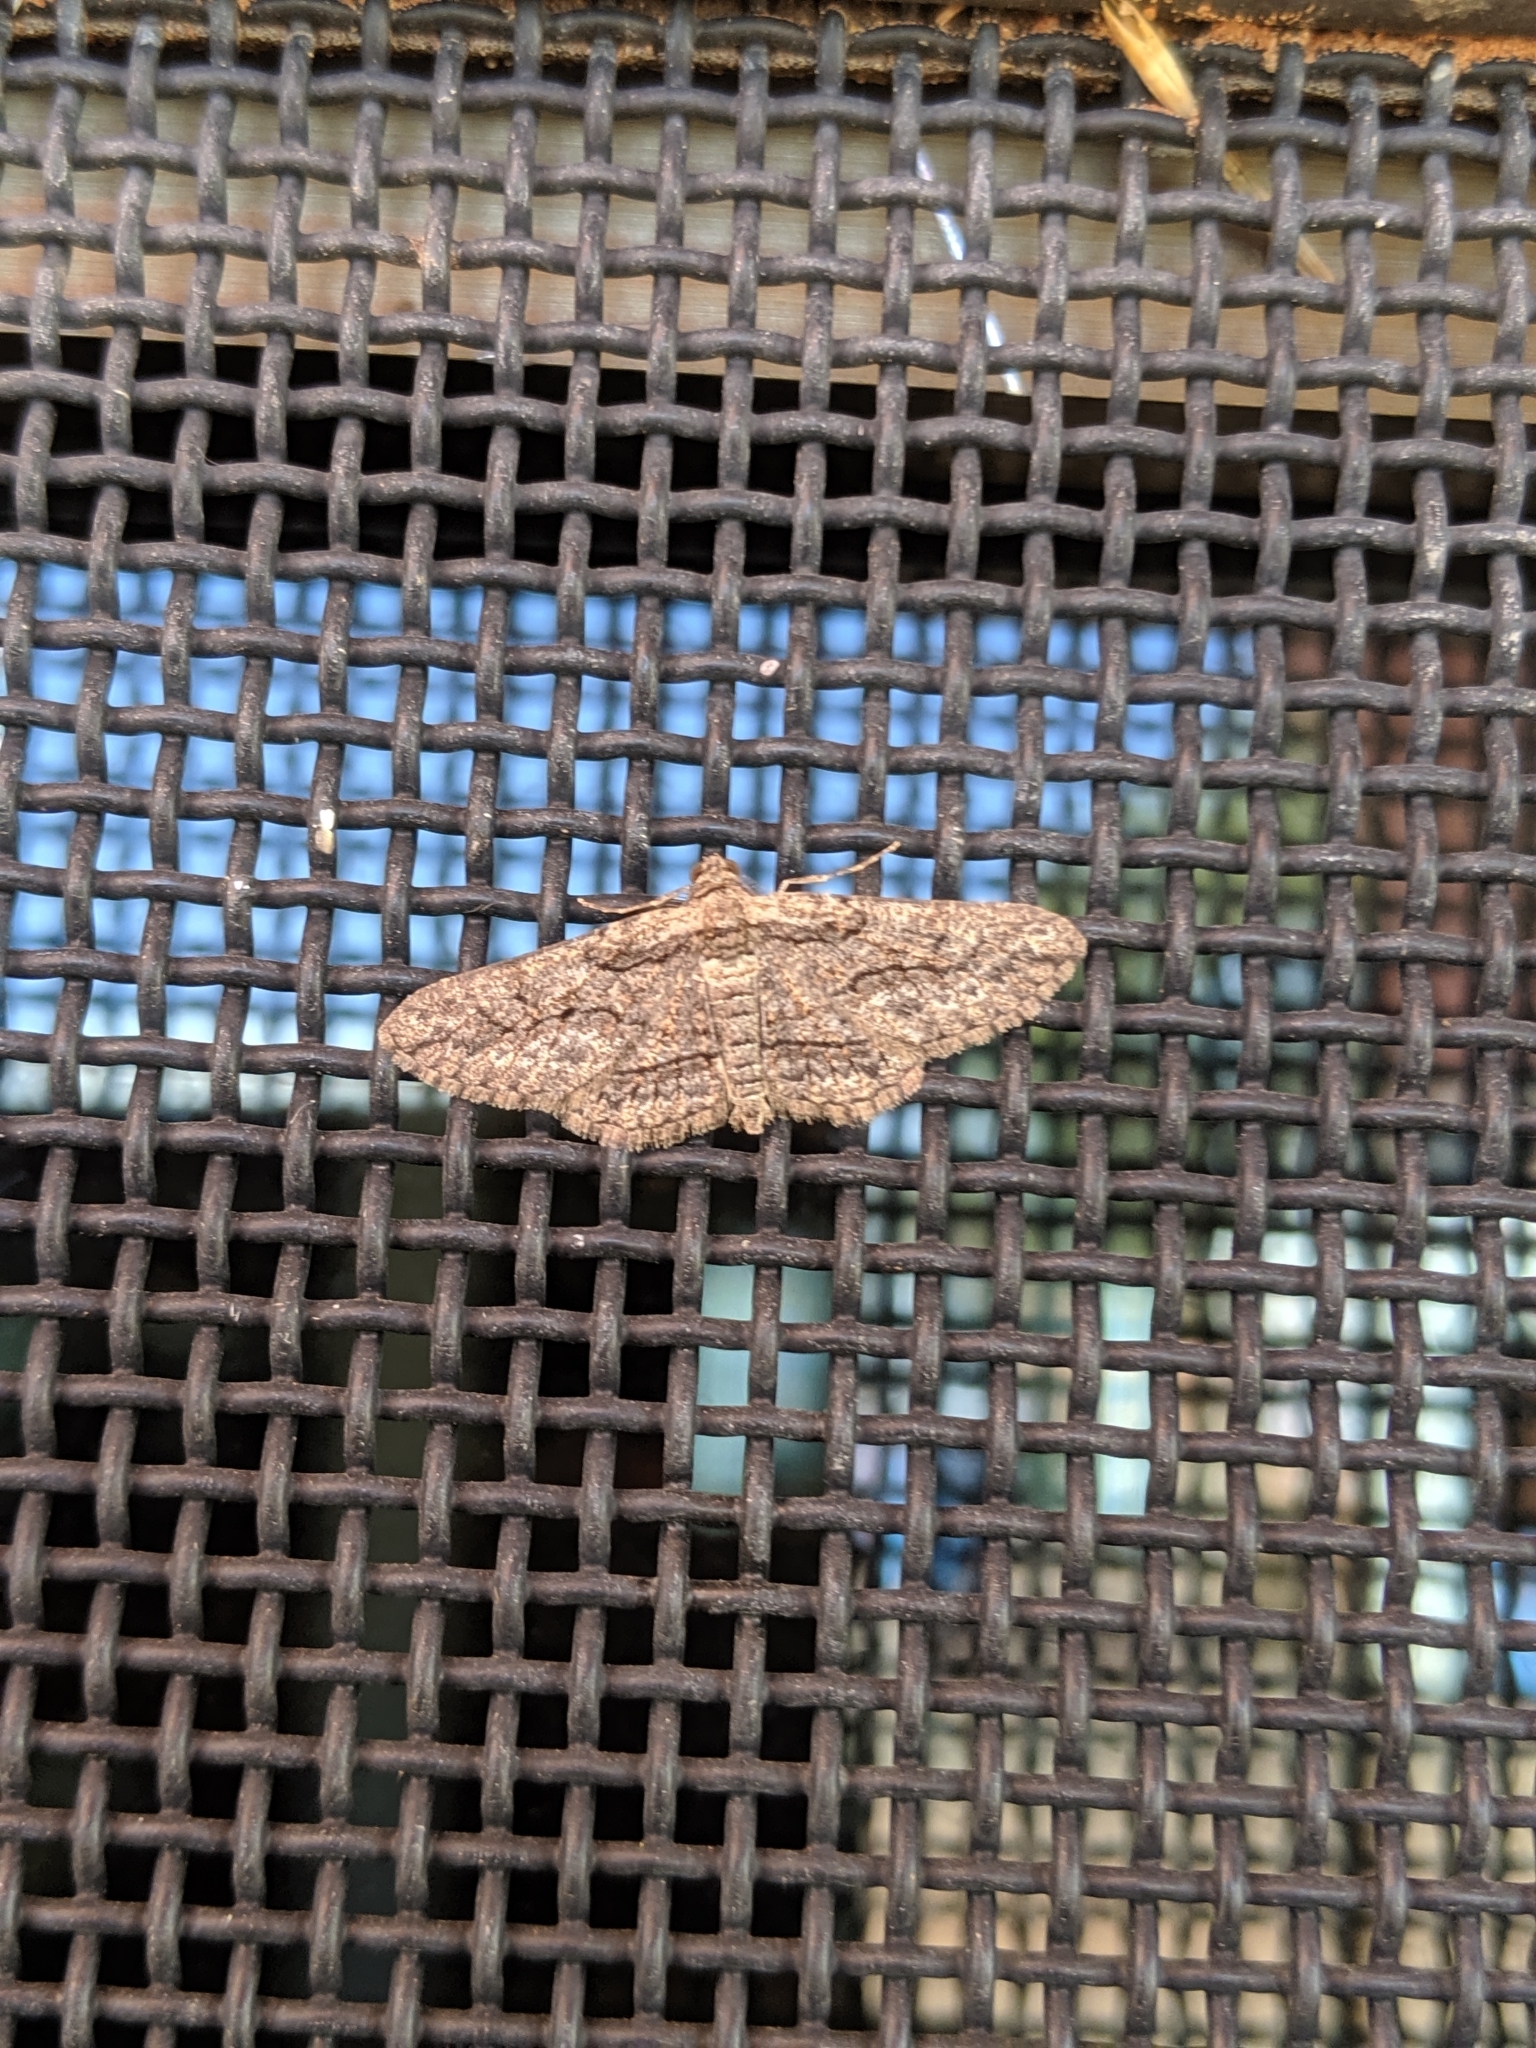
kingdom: Animalia
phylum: Arthropoda
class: Insecta
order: Lepidoptera
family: Geometridae
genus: Ectropis
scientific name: Ectropis plectroneura
